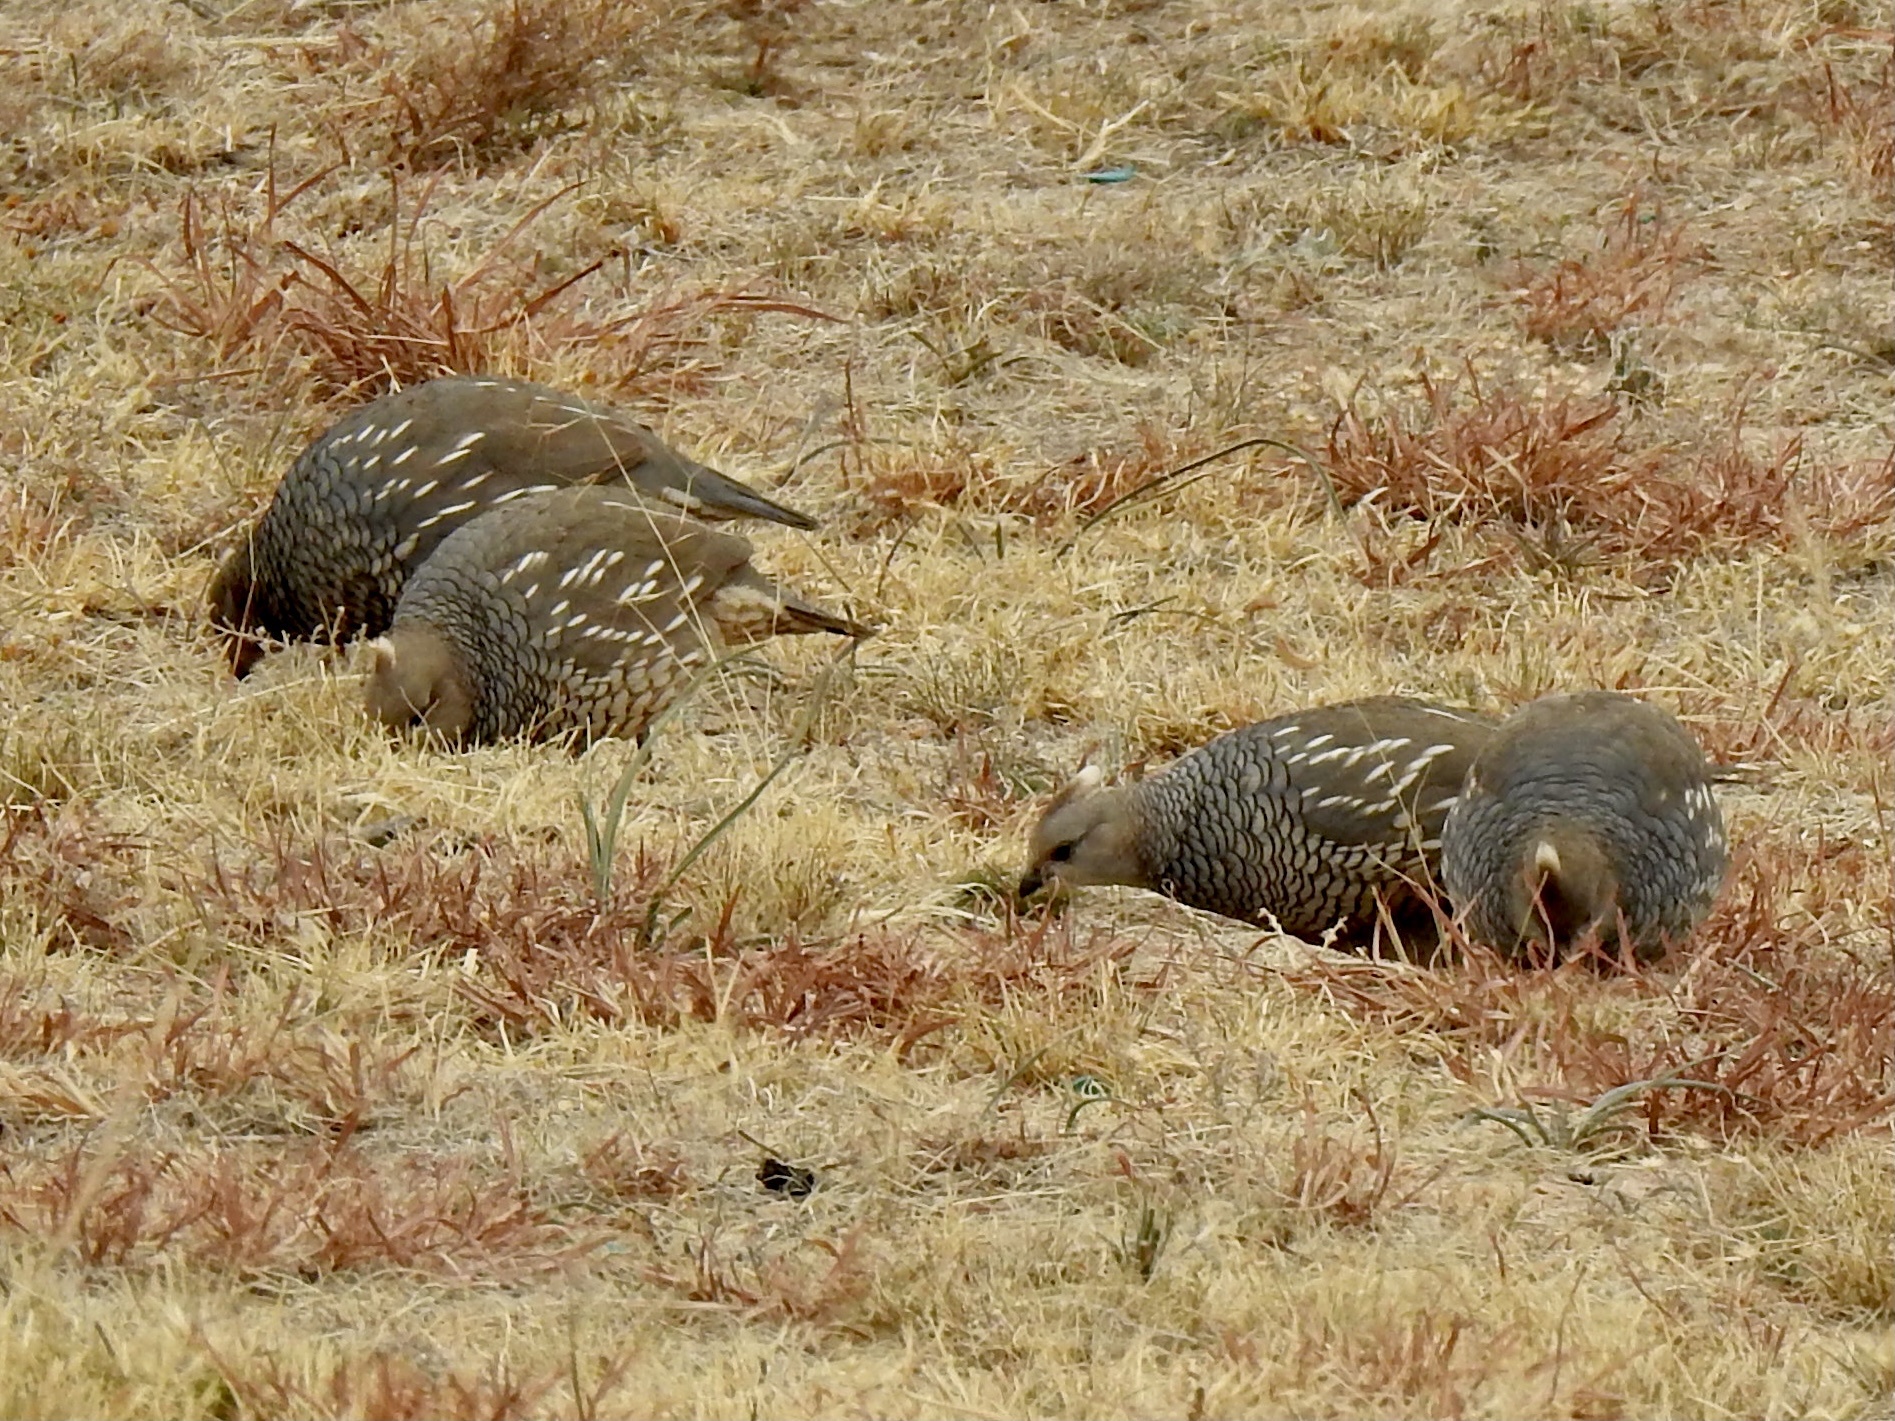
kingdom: Animalia
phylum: Chordata
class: Aves
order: Galliformes
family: Odontophoridae
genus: Callipepla
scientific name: Callipepla squamata
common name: Scaled quail
